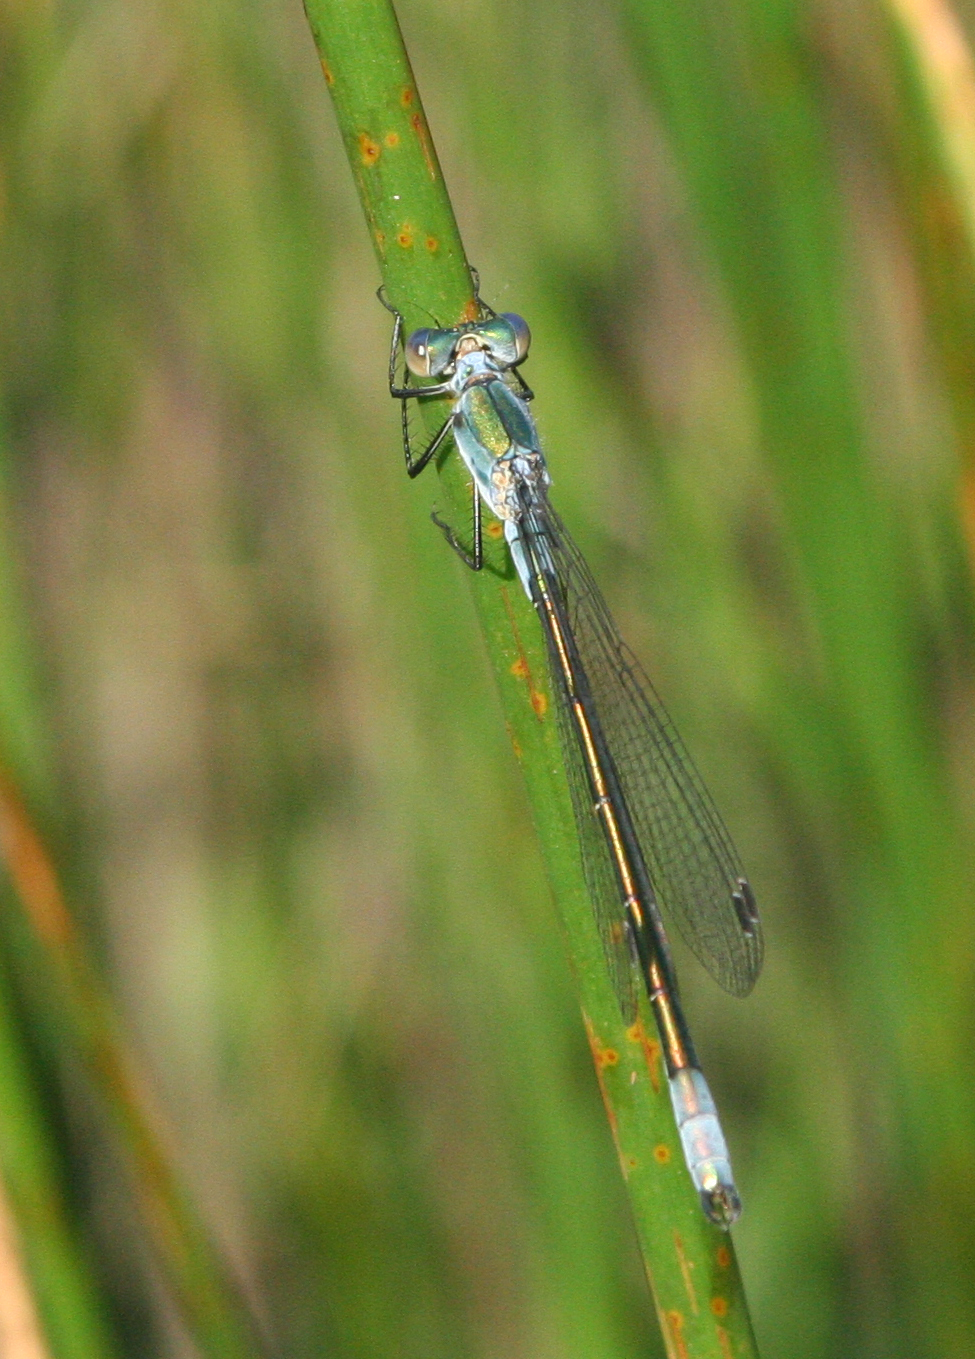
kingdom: Animalia
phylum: Arthropoda
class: Insecta
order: Odonata
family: Lestidae
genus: Lestes
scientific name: Lestes dryas
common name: Scarce emerald damselfly
